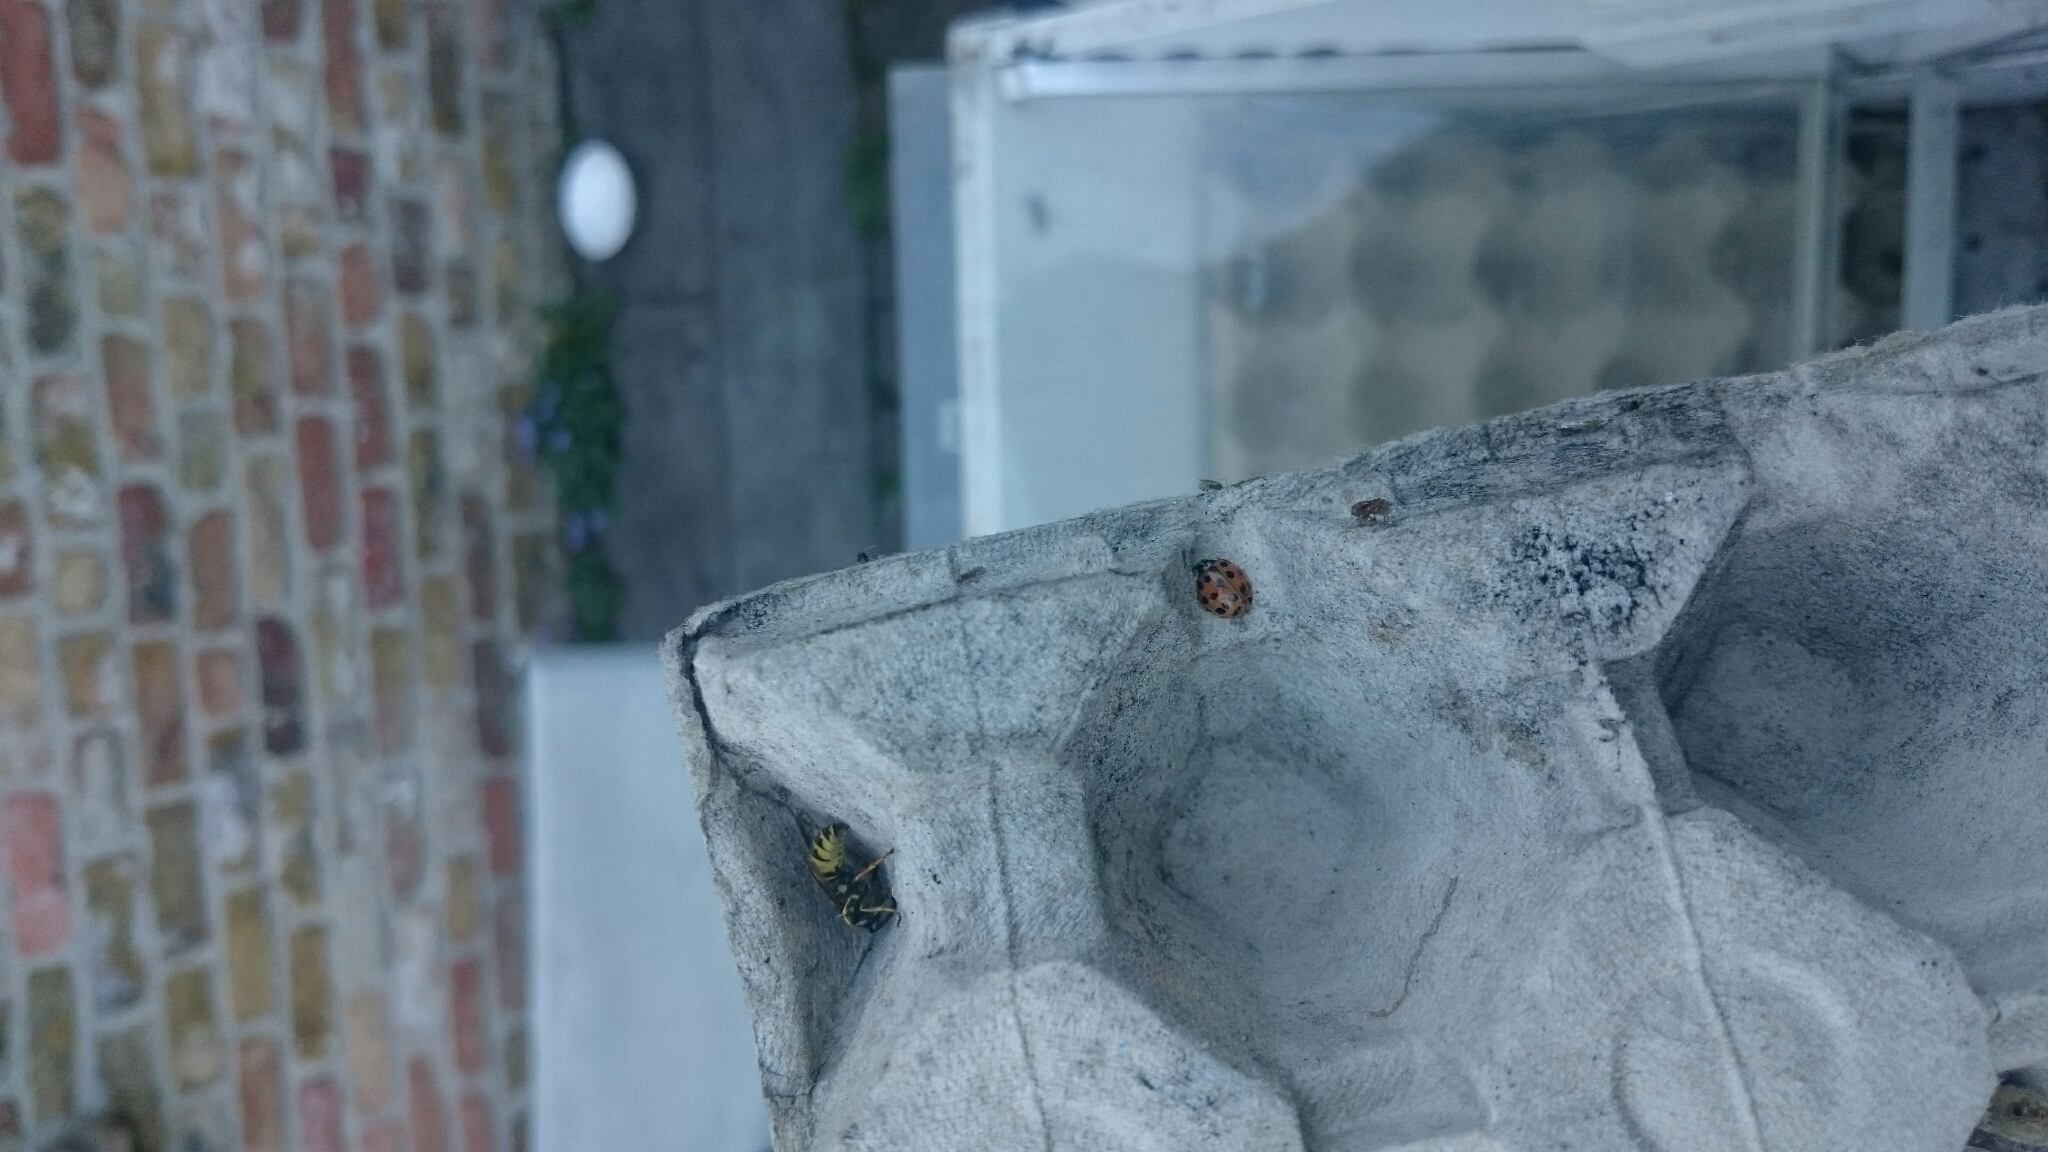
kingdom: Animalia
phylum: Arthropoda
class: Insecta
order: Coleoptera
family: Coccinellidae
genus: Harmonia
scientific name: Harmonia axyridis
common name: Harlequin ladybird
